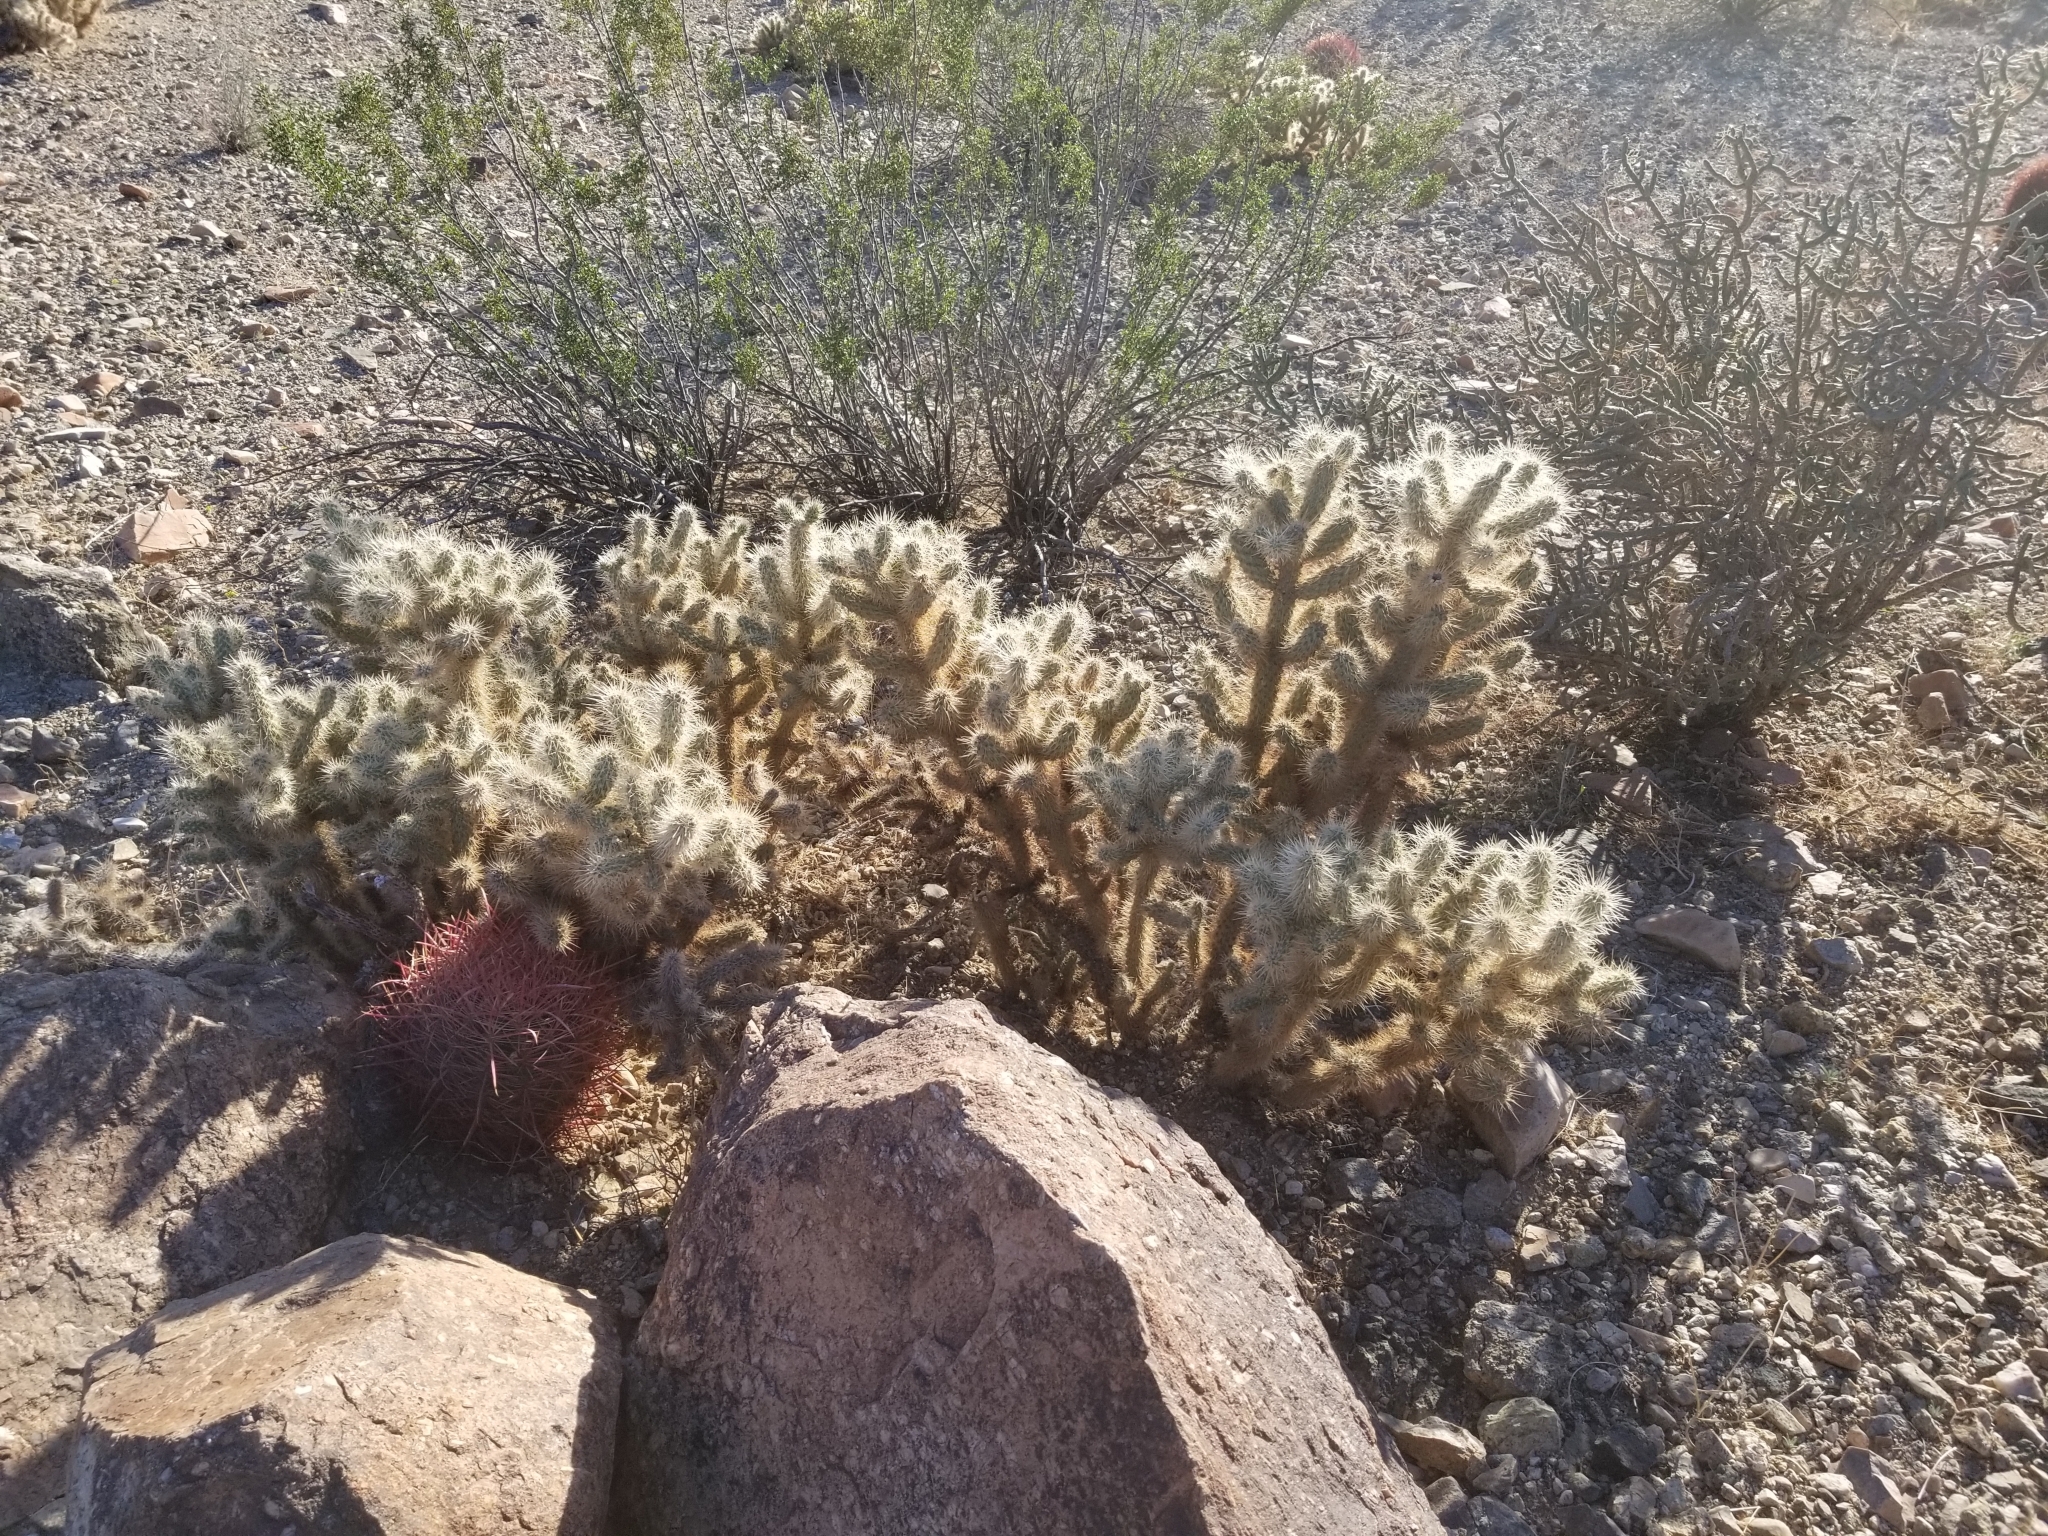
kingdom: Plantae
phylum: Tracheophyta
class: Magnoliopsida
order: Caryophyllales
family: Cactaceae
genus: Cylindropuntia
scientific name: Cylindropuntia chuckwallensis
